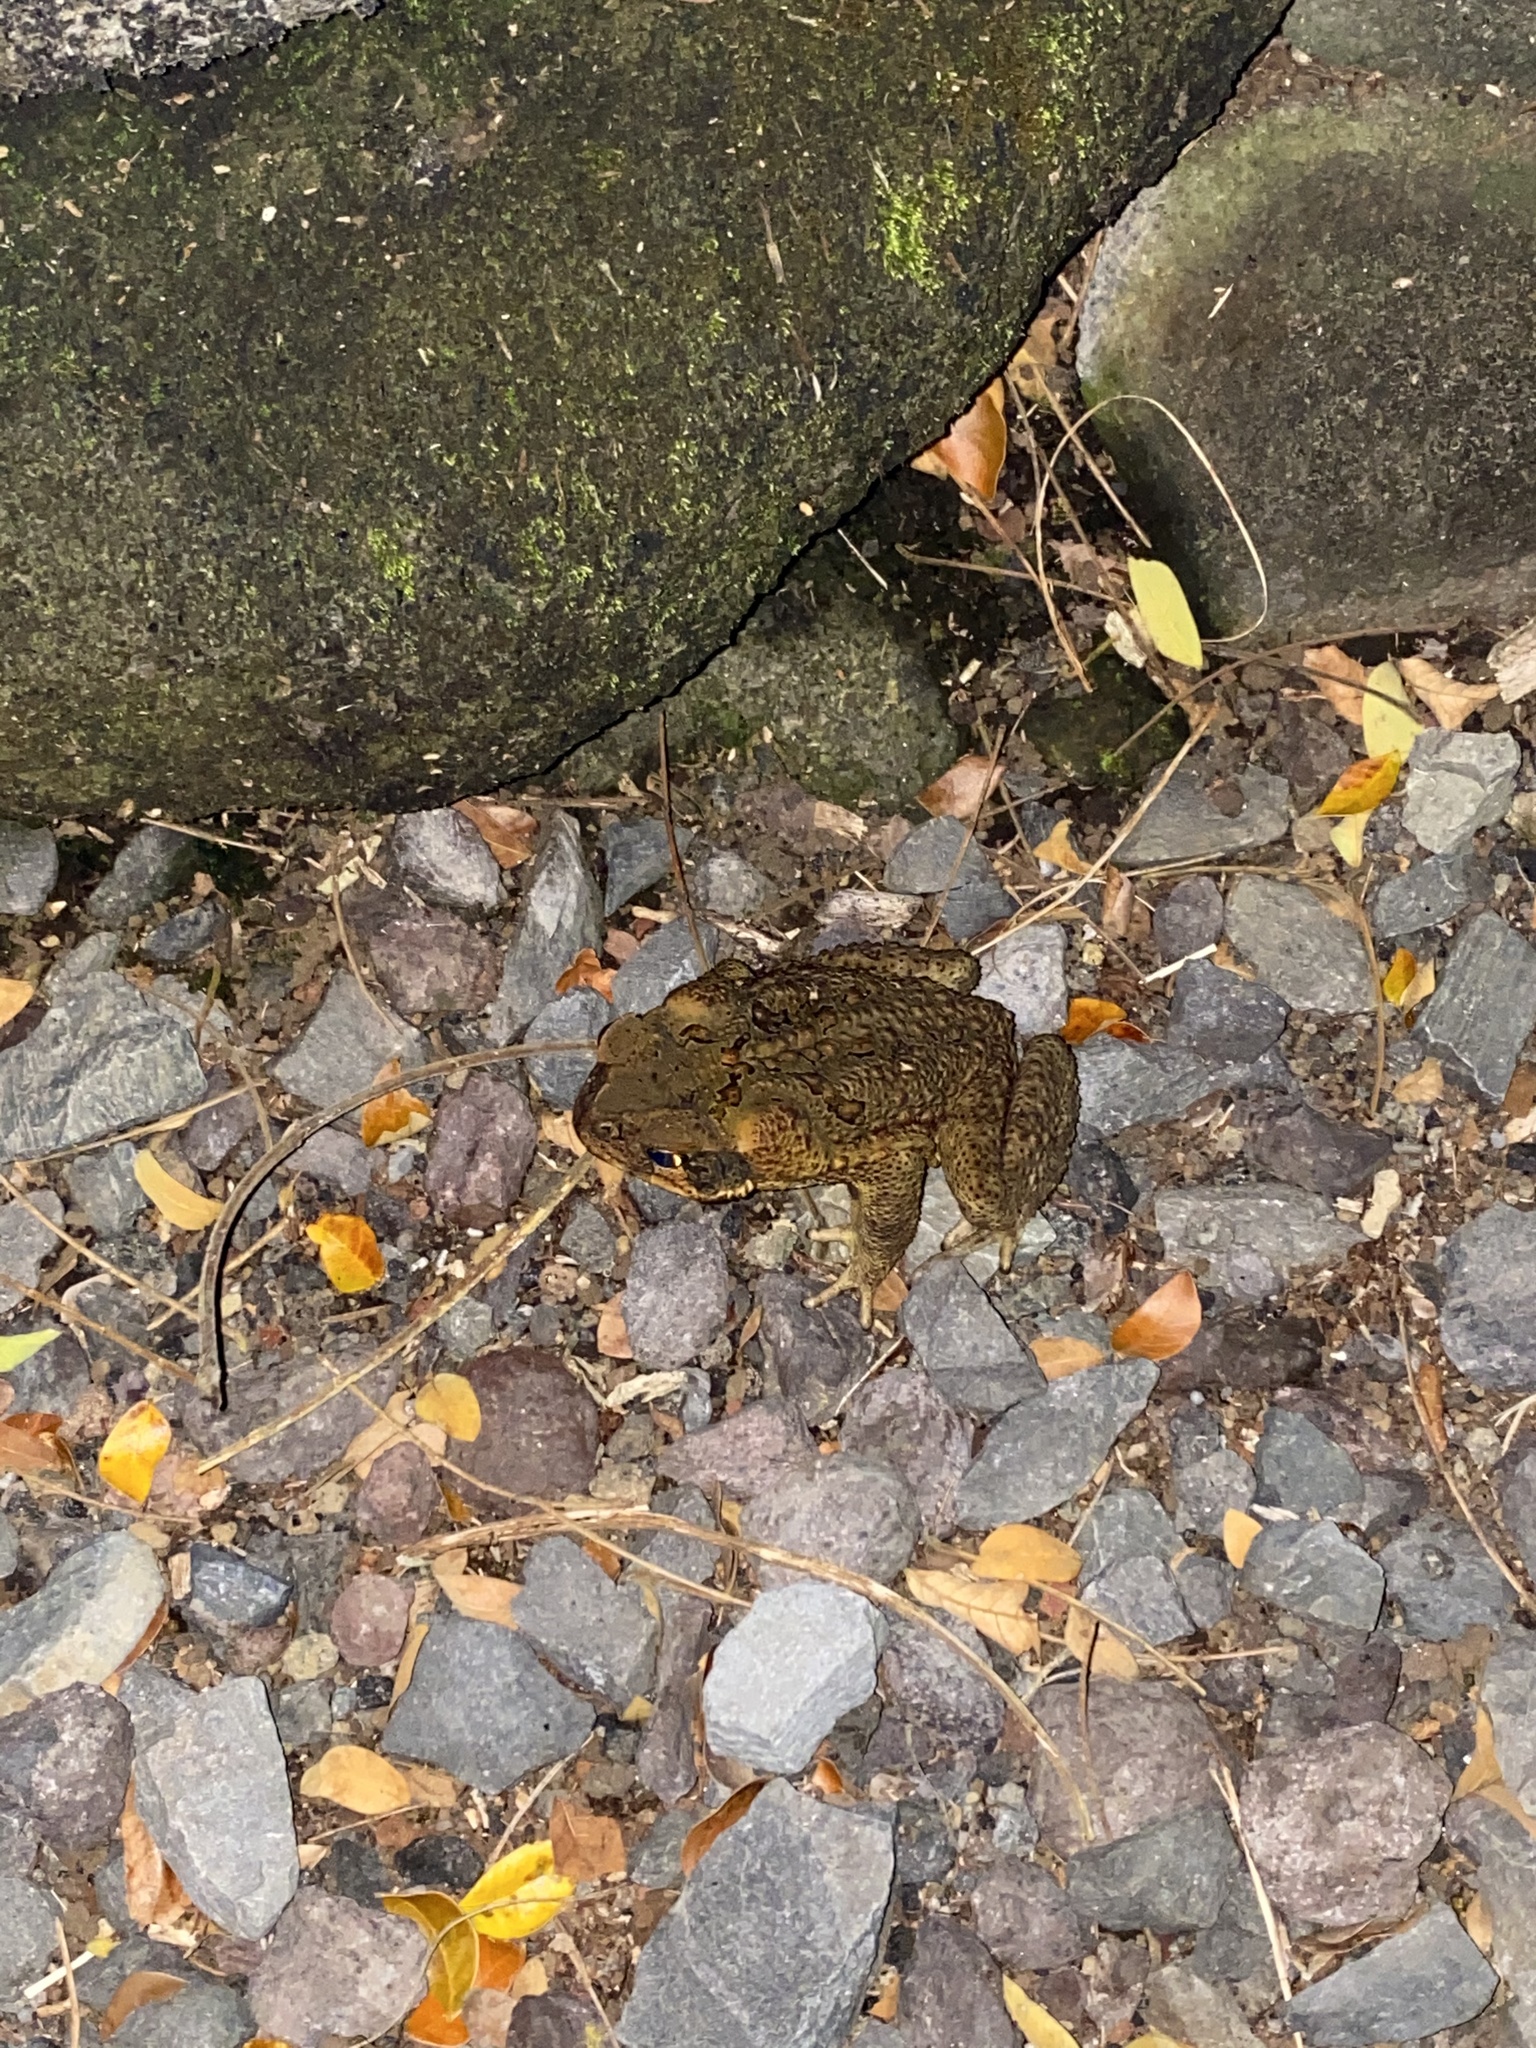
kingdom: Animalia
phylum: Chordata
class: Amphibia
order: Anura
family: Bufonidae
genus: Rhinella
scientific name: Rhinella marina
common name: Cane toad
